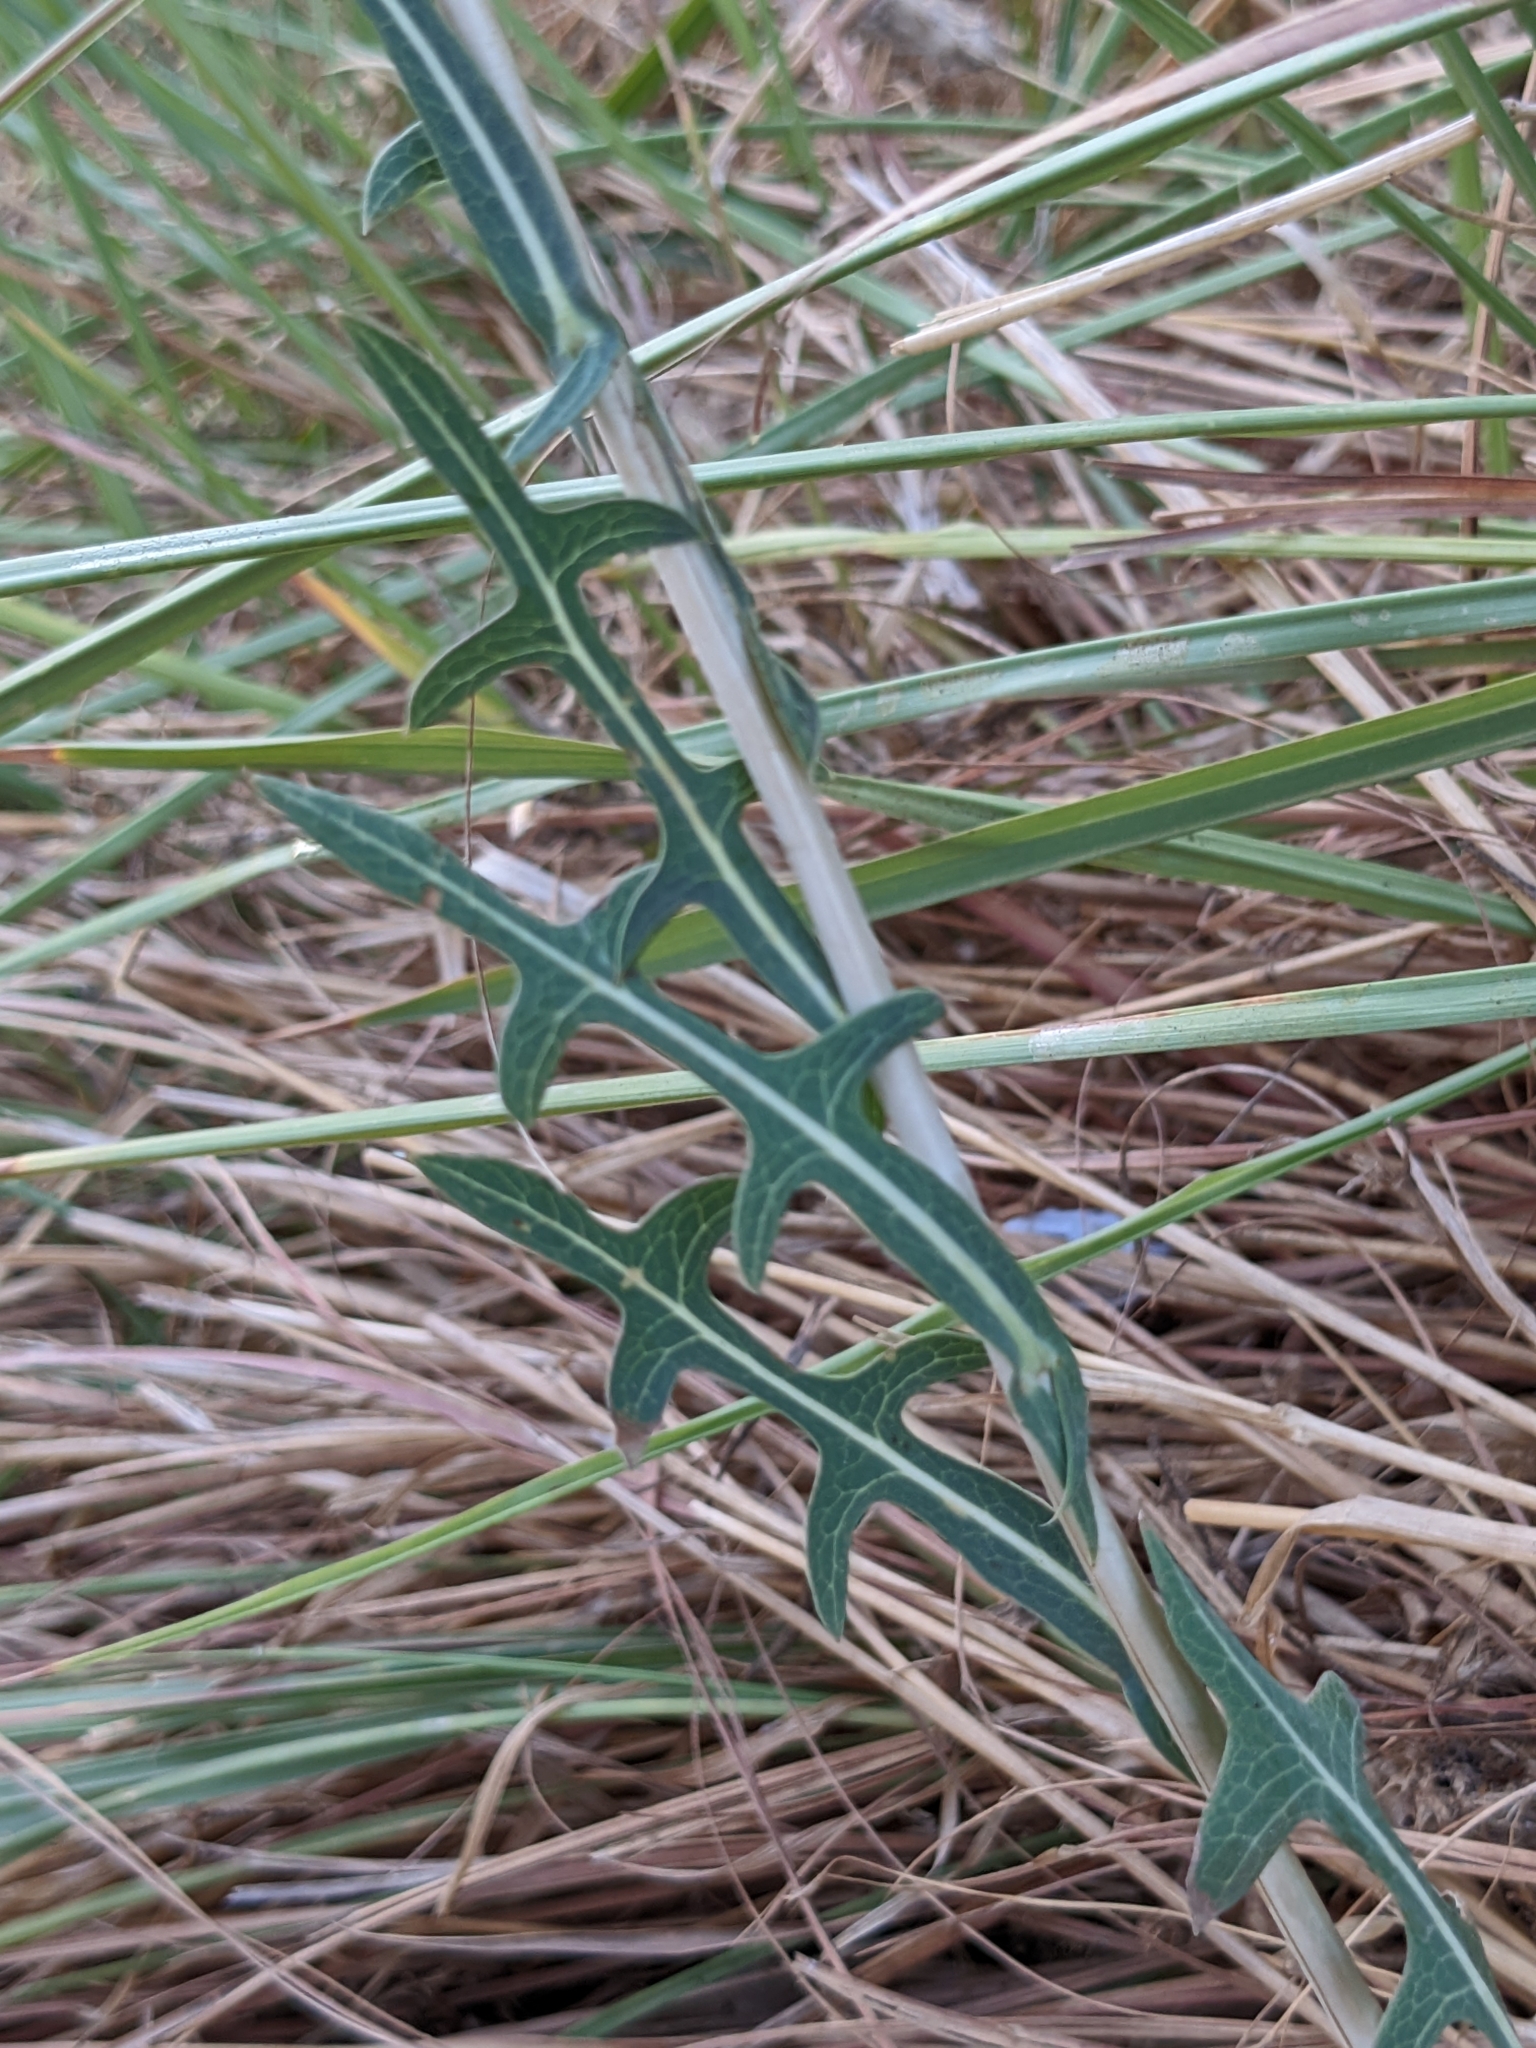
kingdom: Plantae
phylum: Tracheophyta
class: Magnoliopsida
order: Asterales
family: Asteraceae
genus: Lactuca
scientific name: Lactuca serriola
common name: Prickly lettuce
